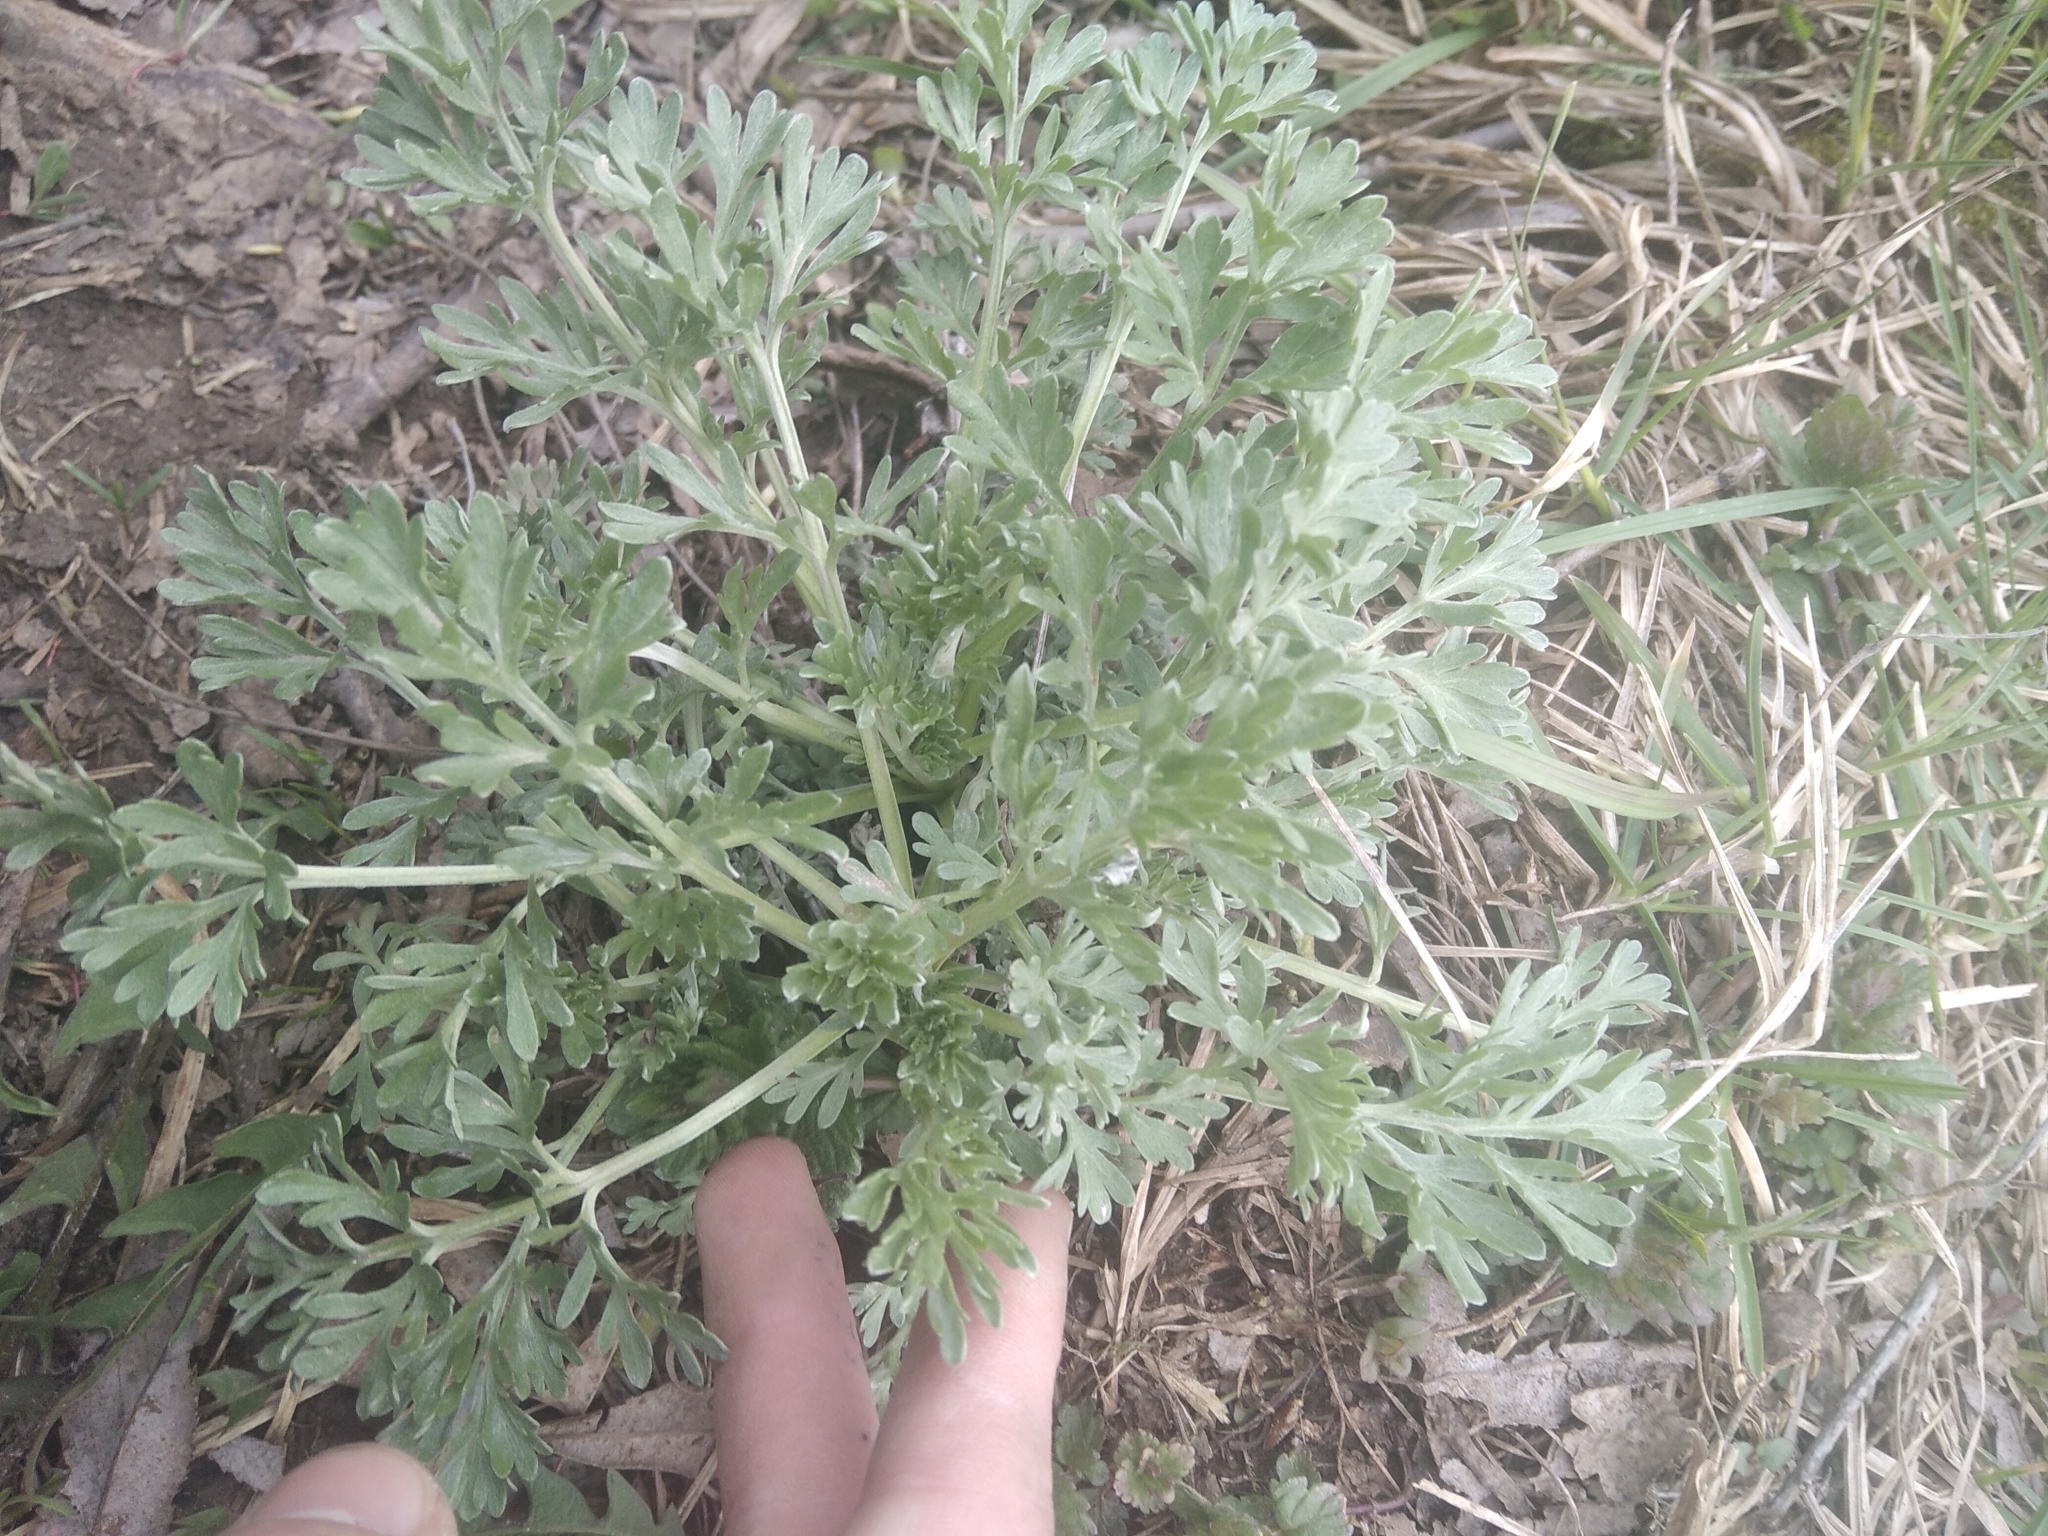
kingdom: Plantae
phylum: Tracheophyta
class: Magnoliopsida
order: Asterales
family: Asteraceae
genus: Artemisia
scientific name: Artemisia absinthium
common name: Wormwood
